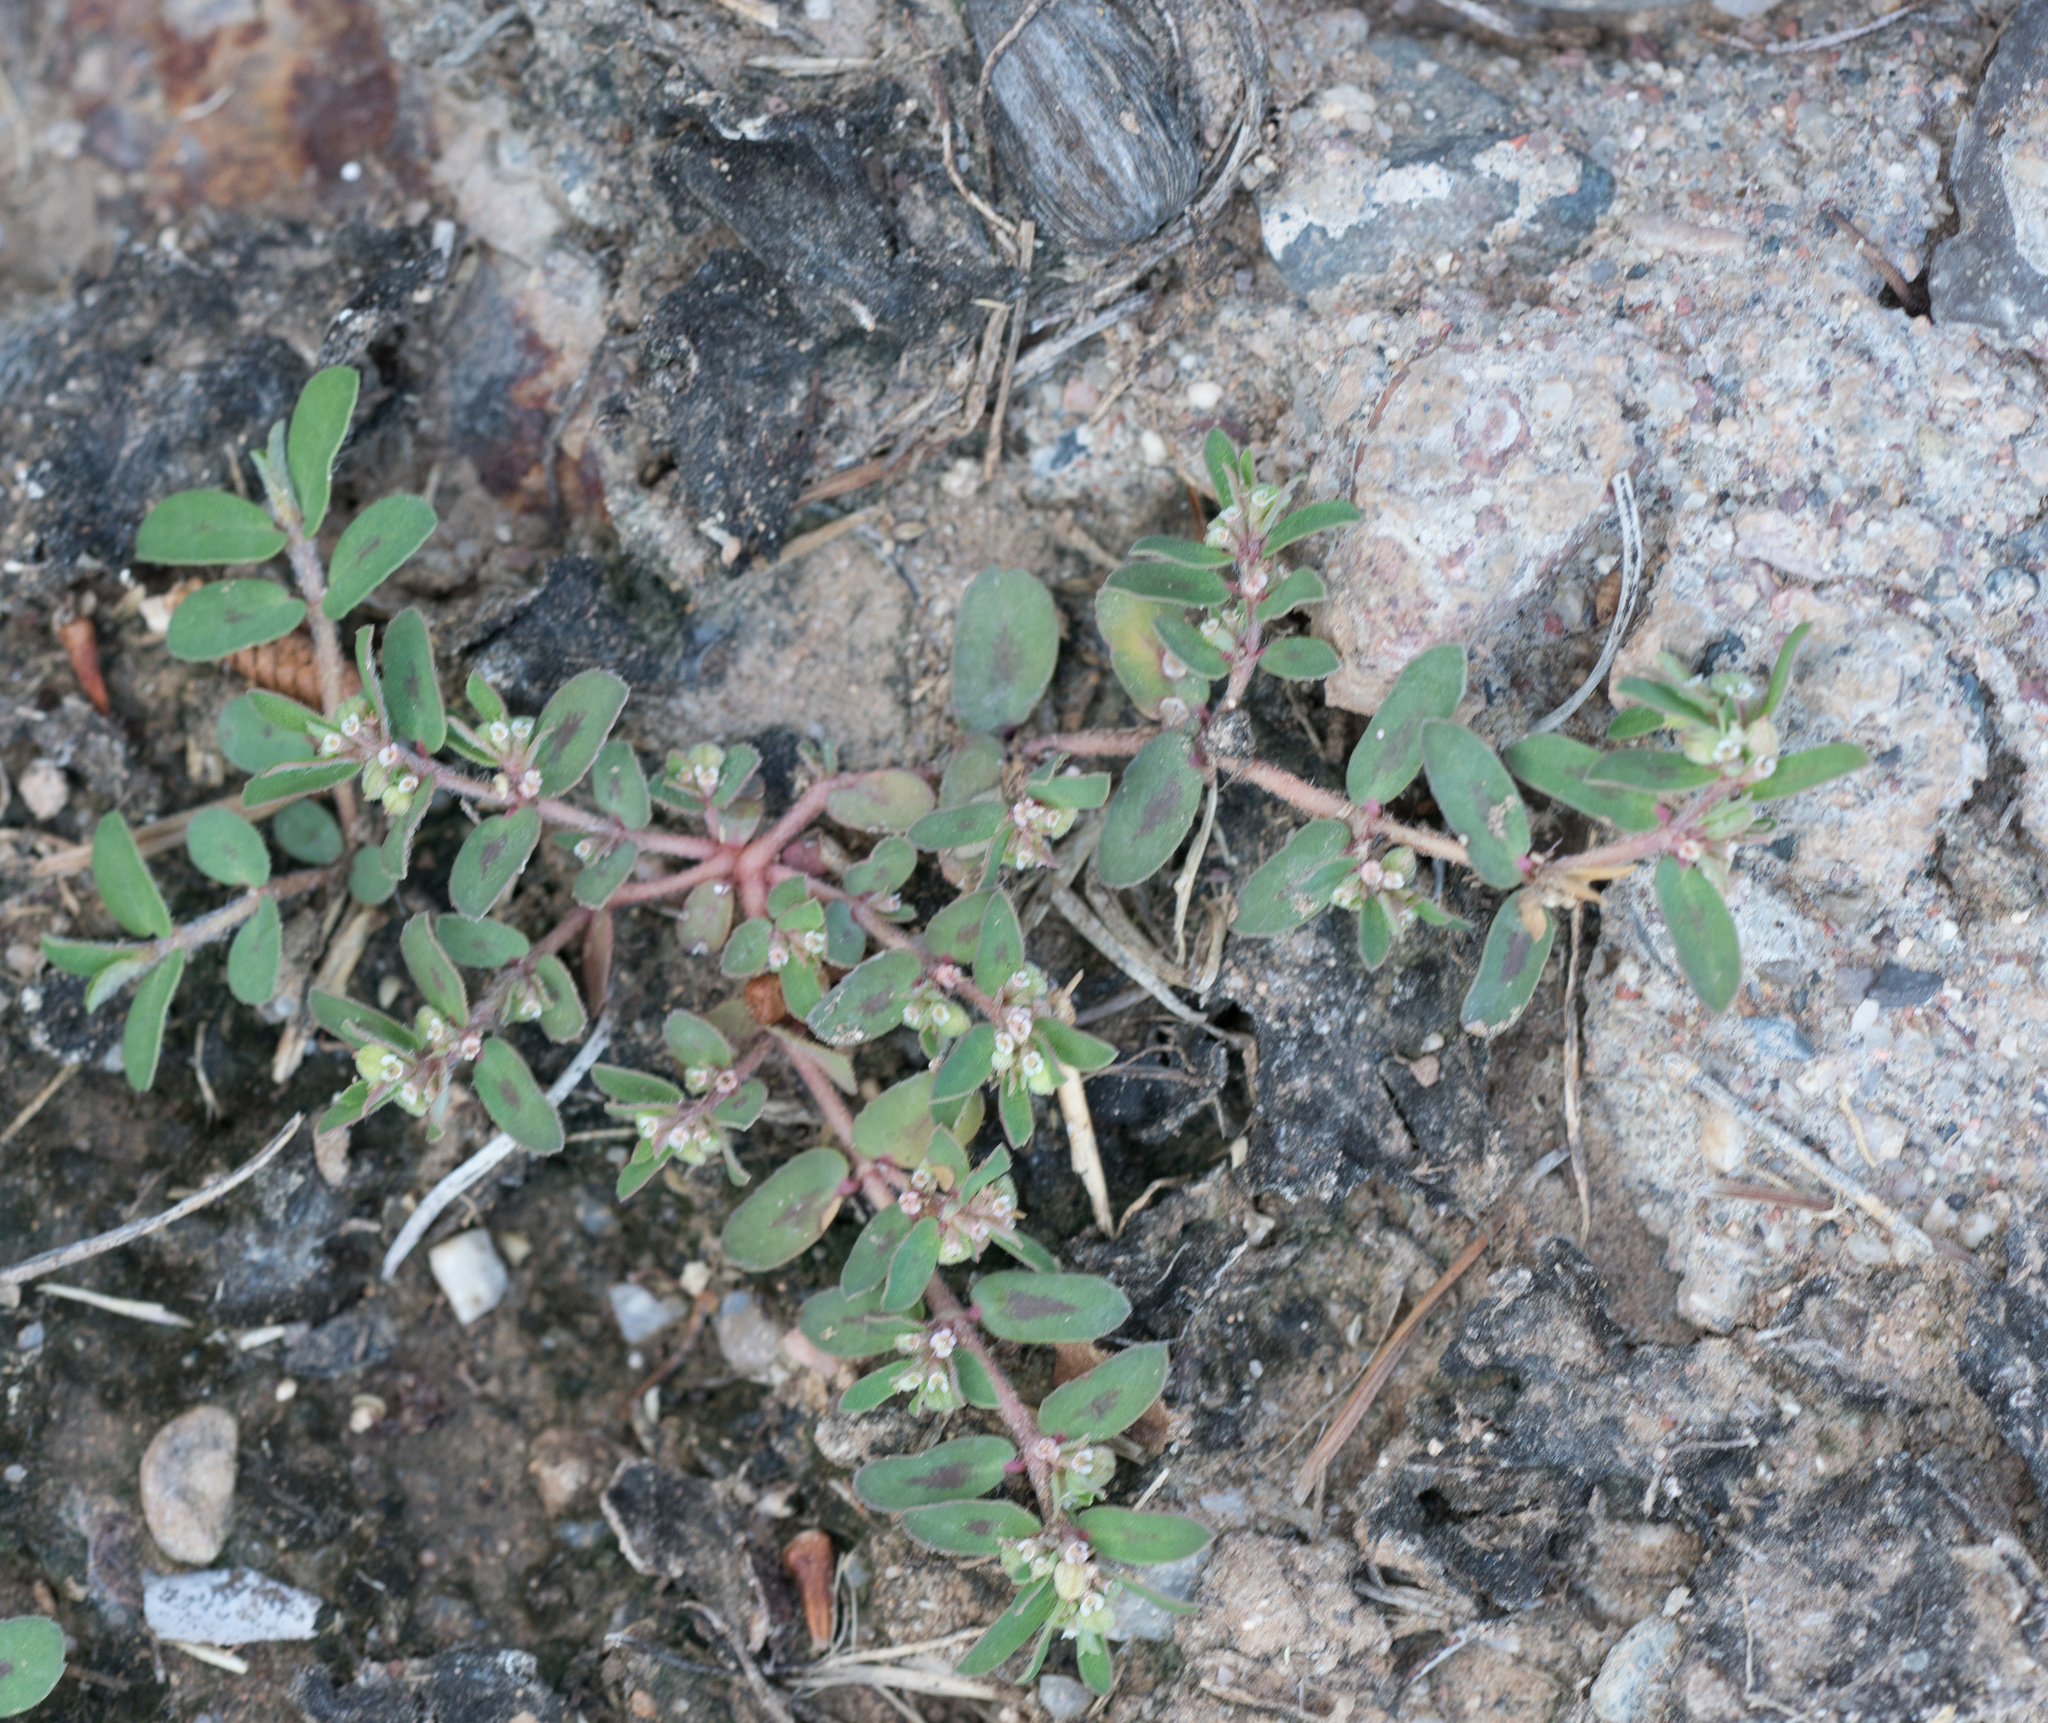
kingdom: Plantae
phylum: Tracheophyta
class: Magnoliopsida
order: Malpighiales
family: Euphorbiaceae
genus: Euphorbia
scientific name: Euphorbia maculata
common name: Spotted spurge
